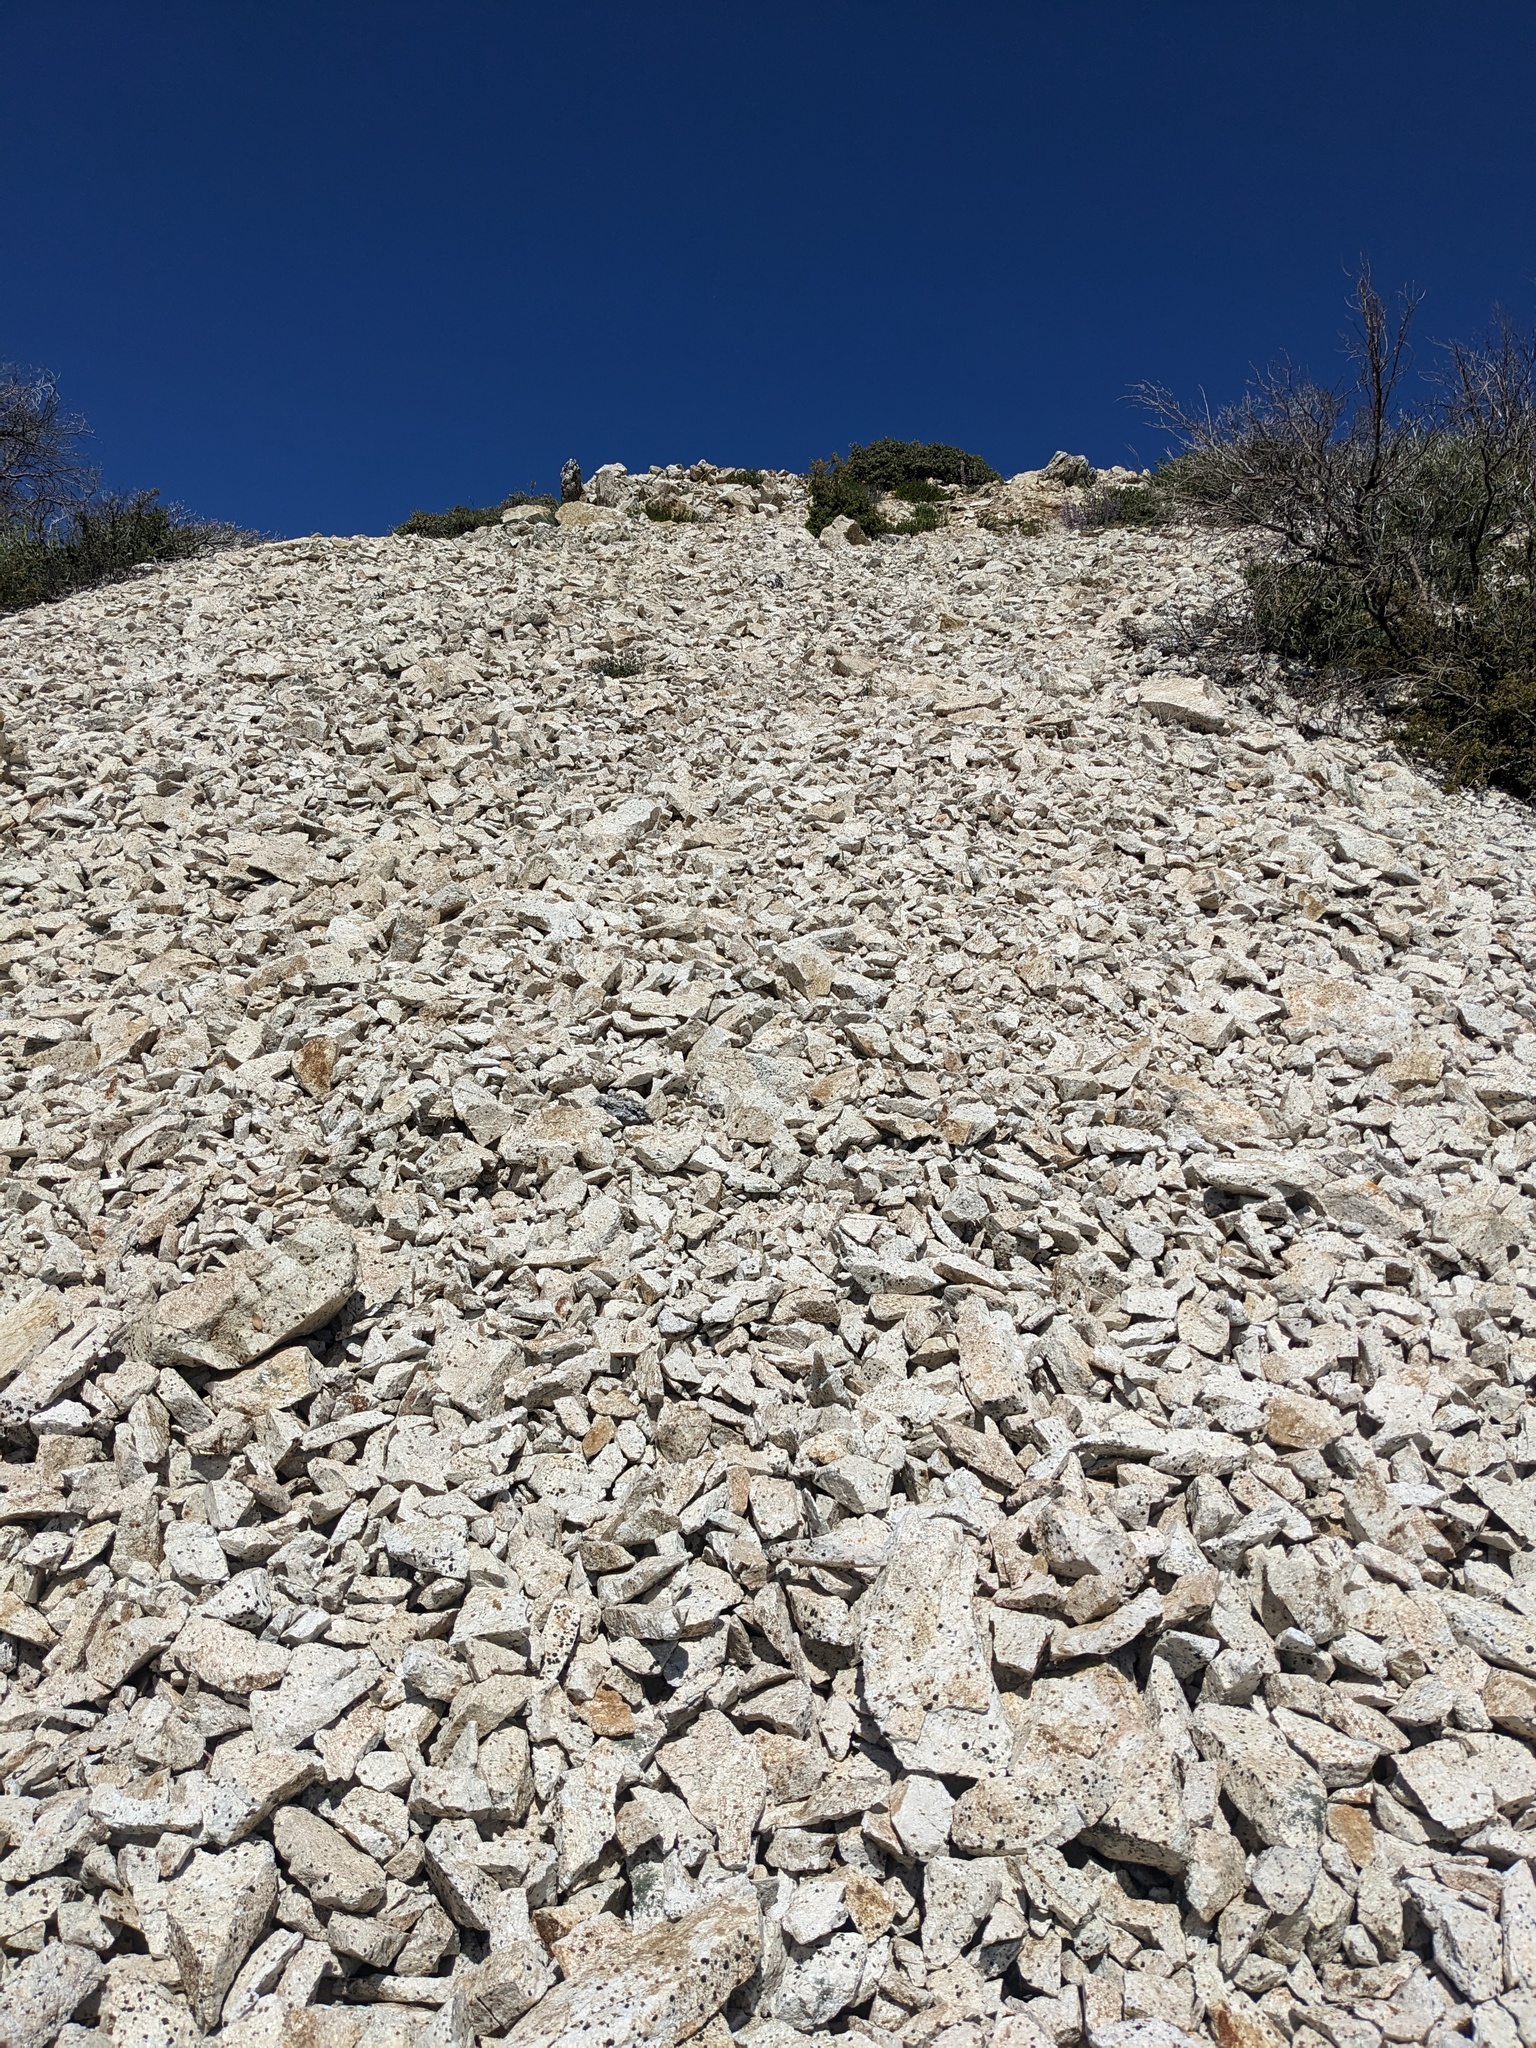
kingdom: Plantae
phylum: Tracheophyta
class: Magnoliopsida
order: Brassicales
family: Brassicaceae
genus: Streptanthus
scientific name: Streptanthus tortuosus
